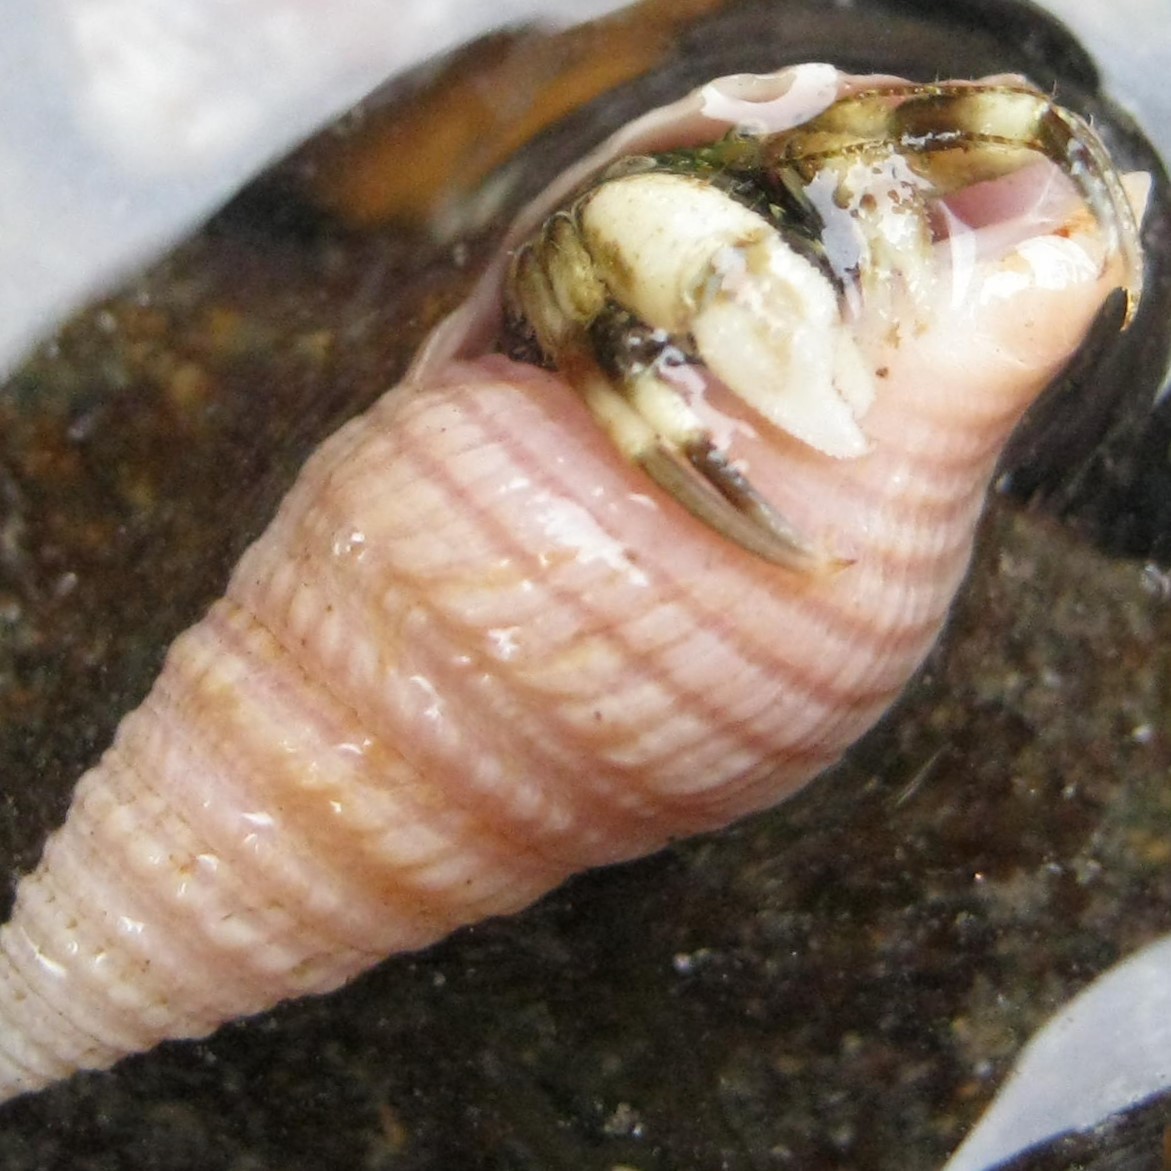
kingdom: Animalia
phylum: Arthropoda
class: Malacostraca
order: Decapoda
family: Paguridae
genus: Pagurus
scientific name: Pagurus novizealandiae
